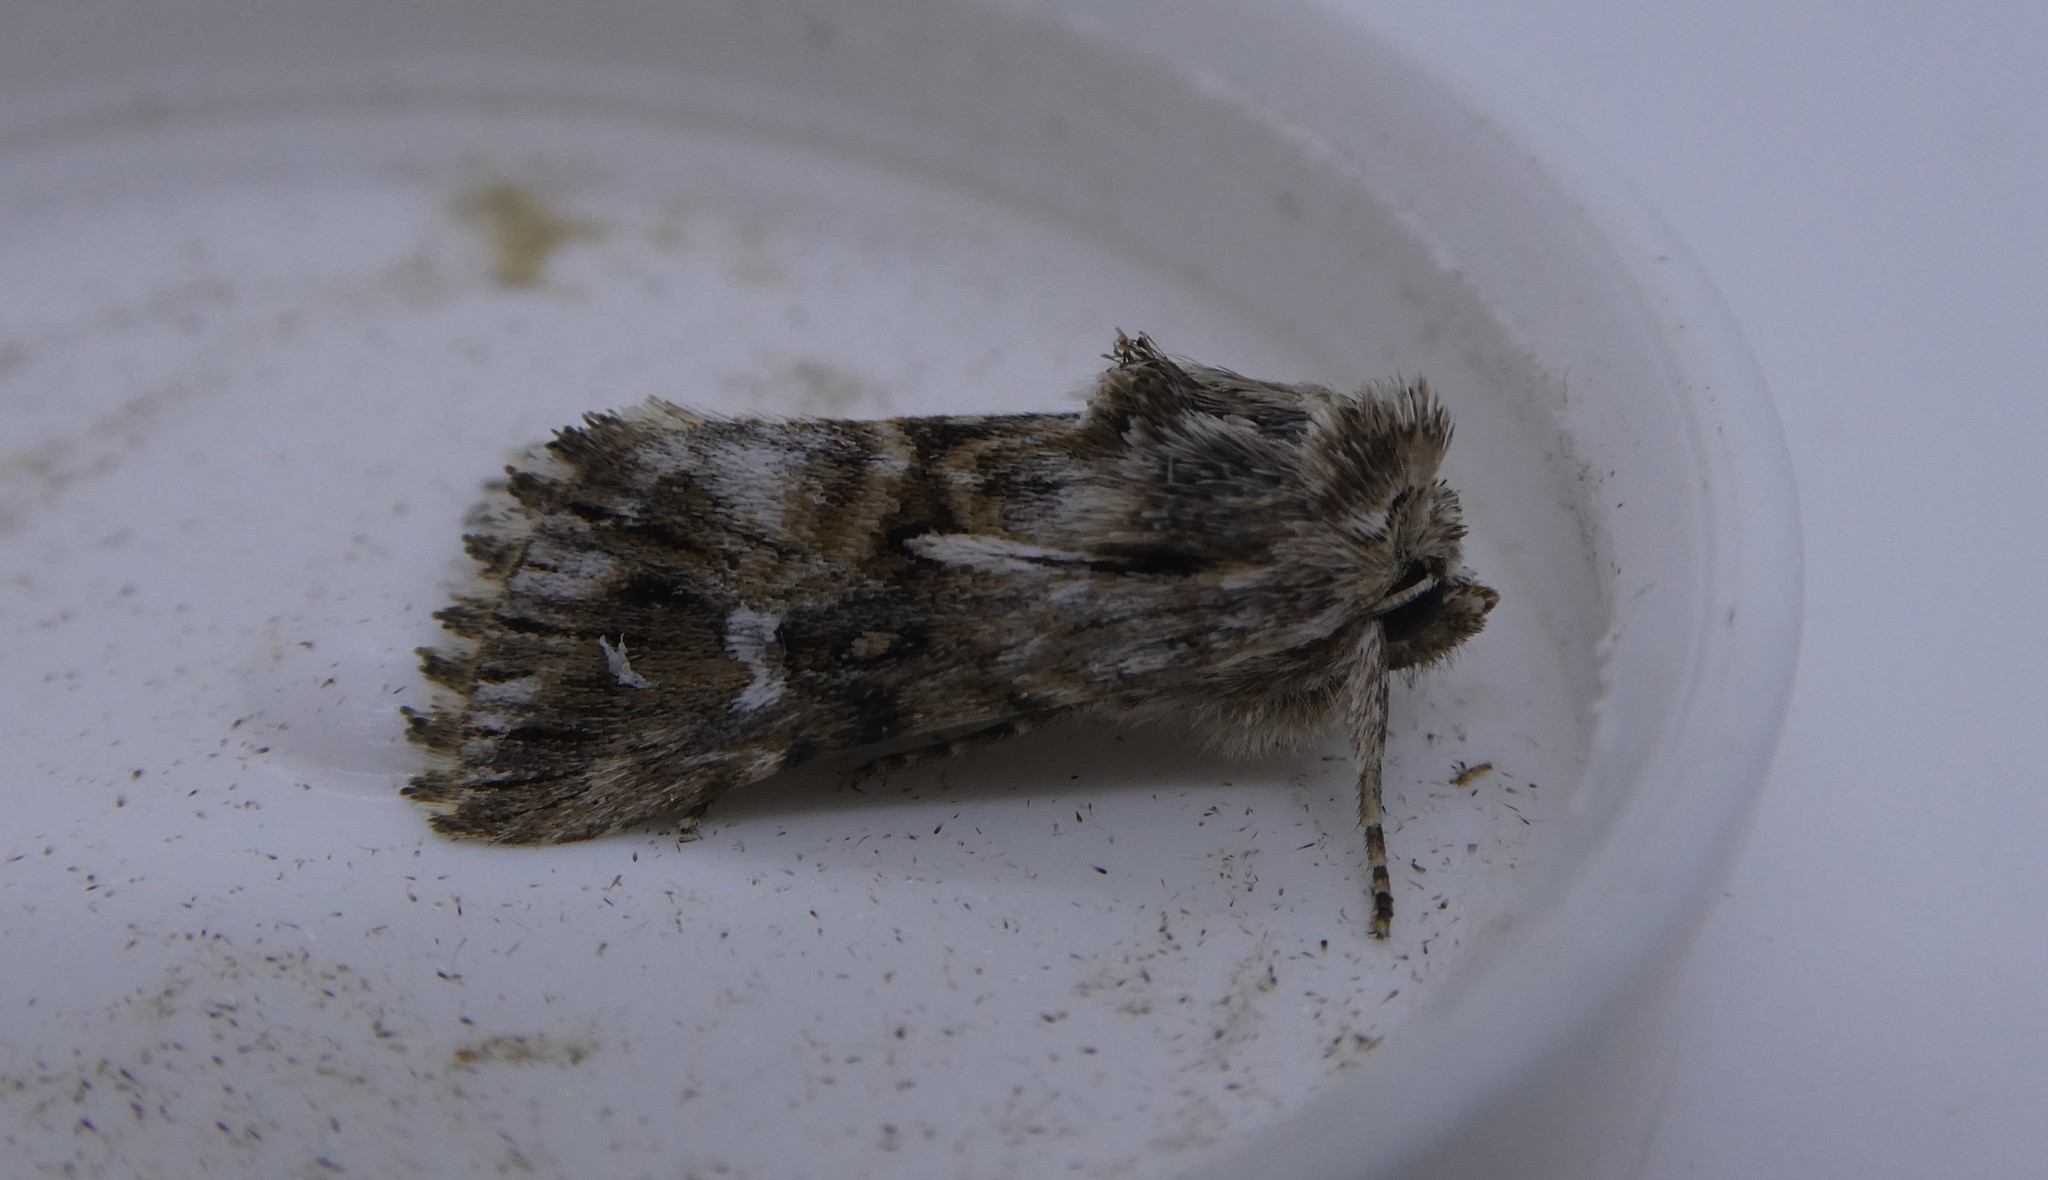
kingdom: Animalia
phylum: Arthropoda
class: Insecta
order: Lepidoptera
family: Noctuidae
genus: Calophasia
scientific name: Calophasia lunula
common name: Toadflax brocade
